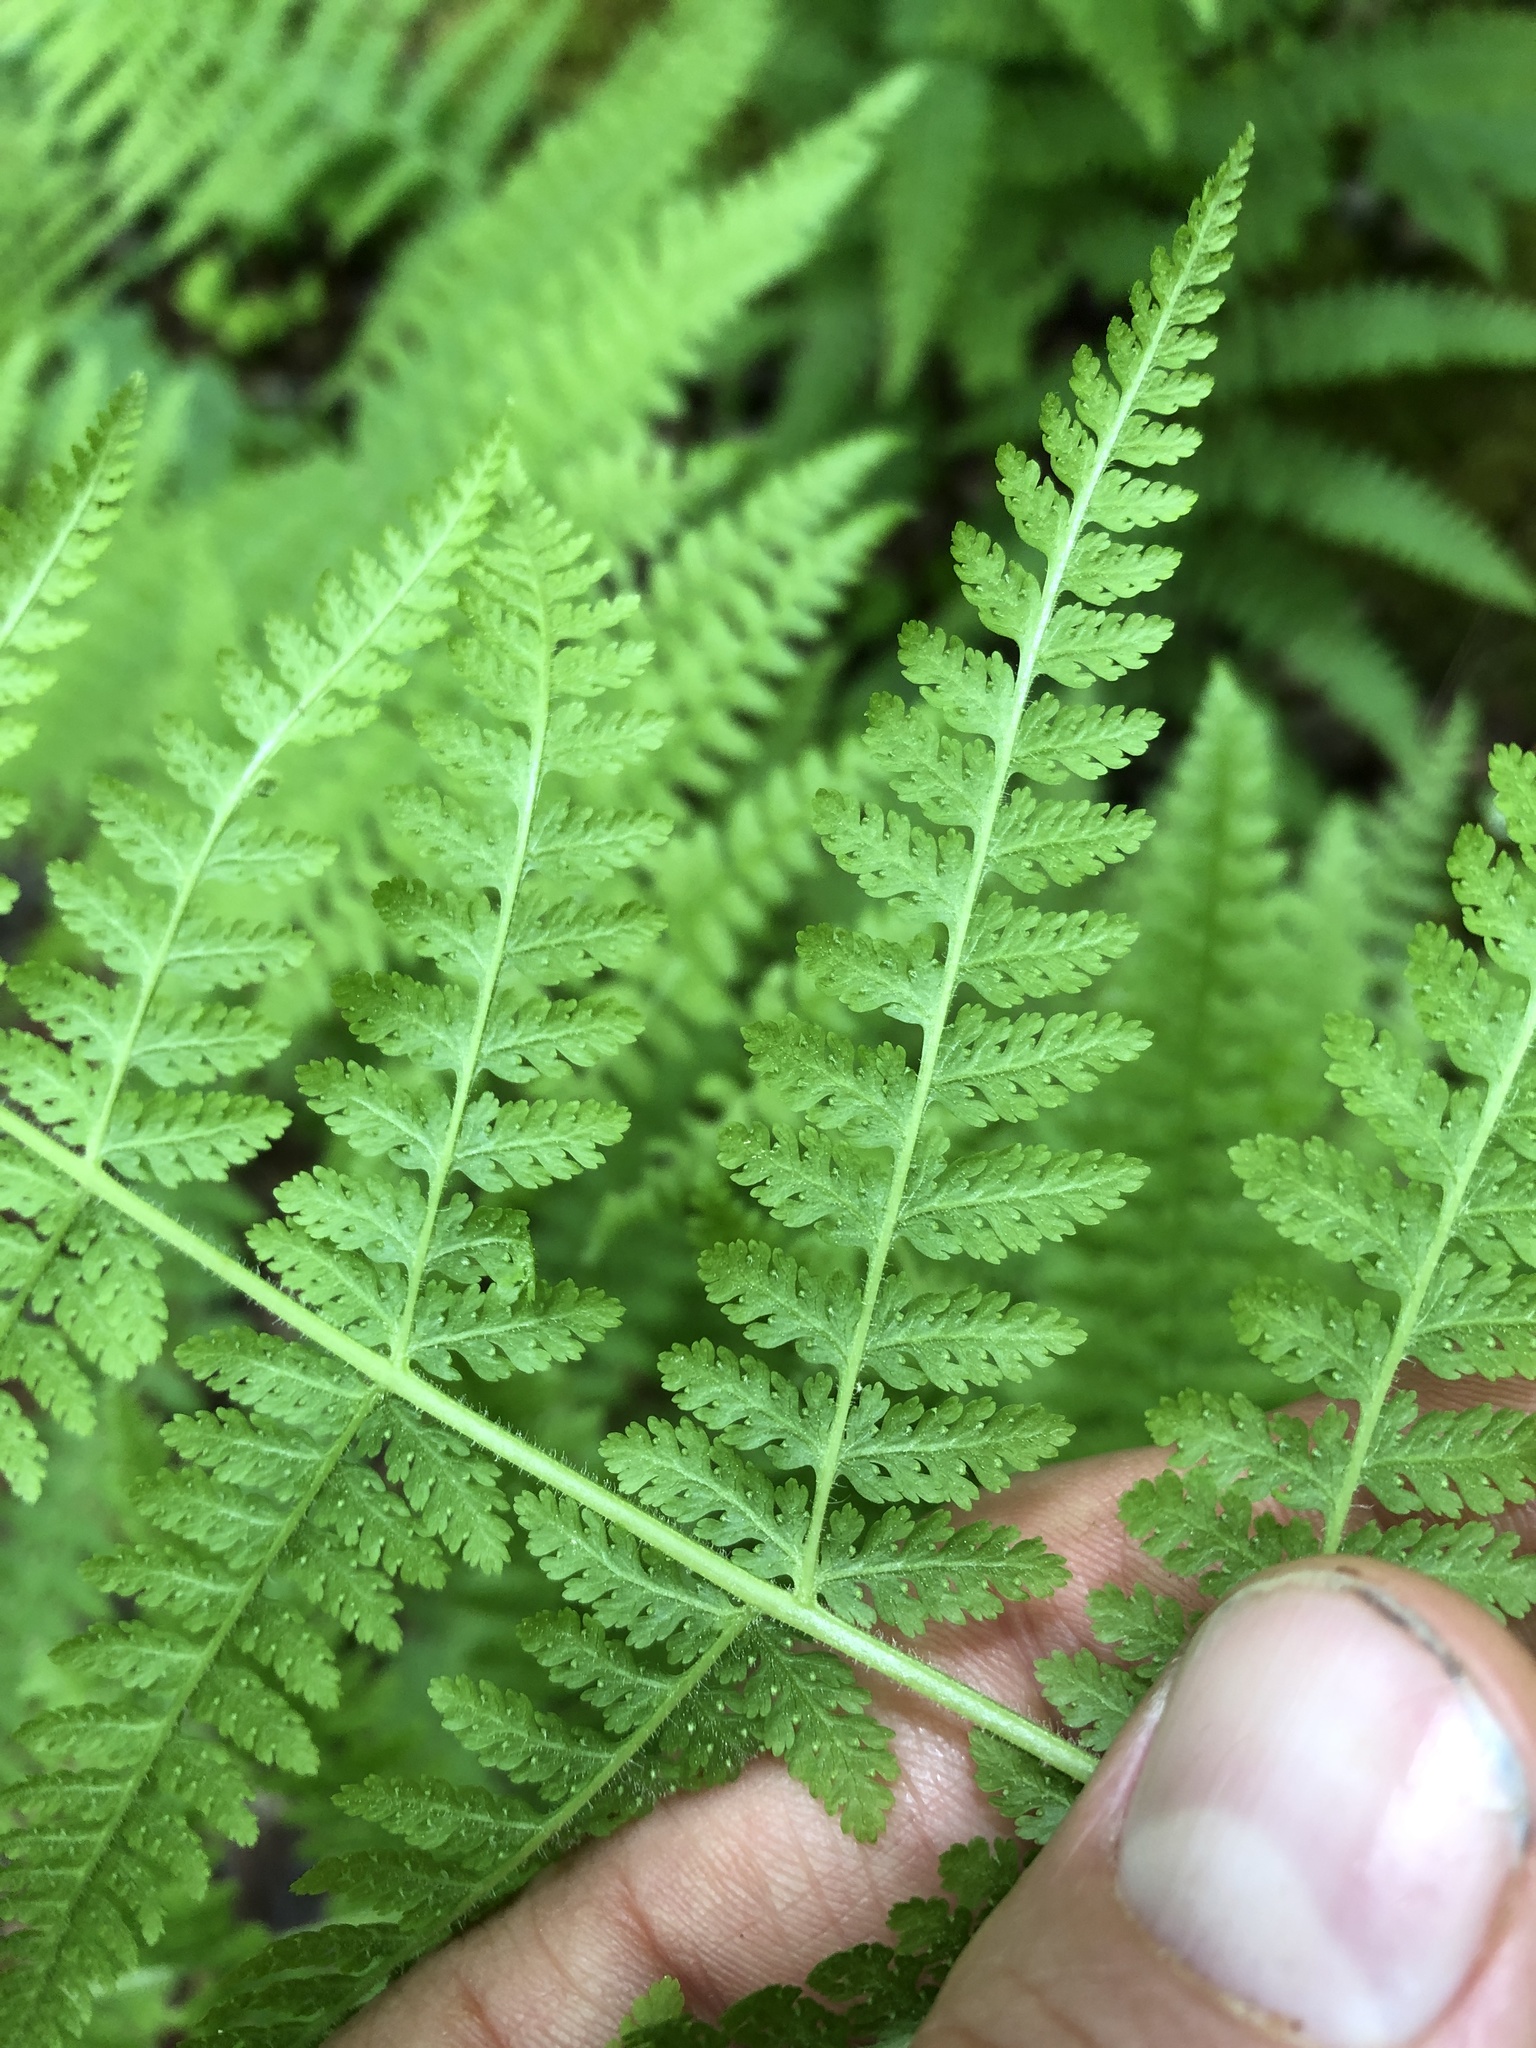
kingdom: Plantae
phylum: Tracheophyta
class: Polypodiopsida
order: Polypodiales
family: Dennstaedtiaceae
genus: Sitobolium
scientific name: Sitobolium punctilobum
